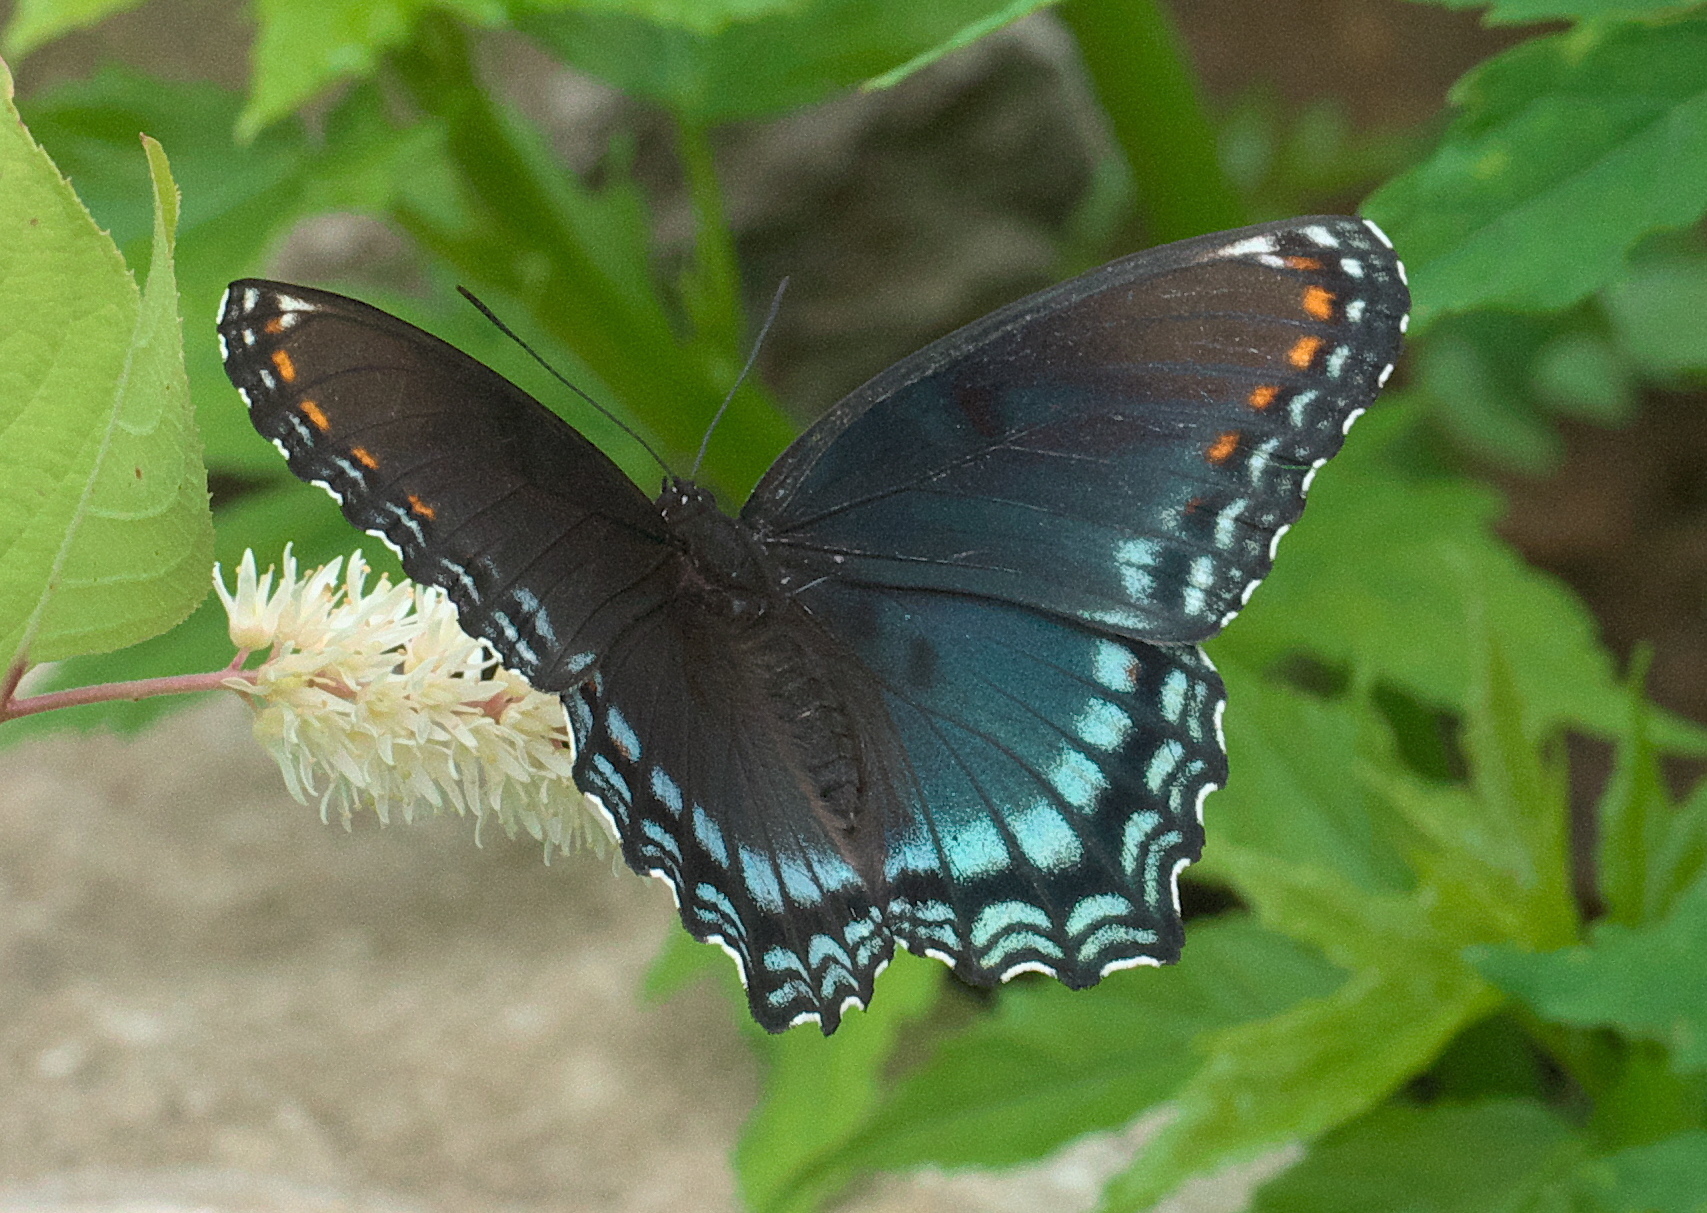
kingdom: Animalia
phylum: Arthropoda
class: Insecta
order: Lepidoptera
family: Nymphalidae
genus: Limenitis
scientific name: Limenitis astyanax
